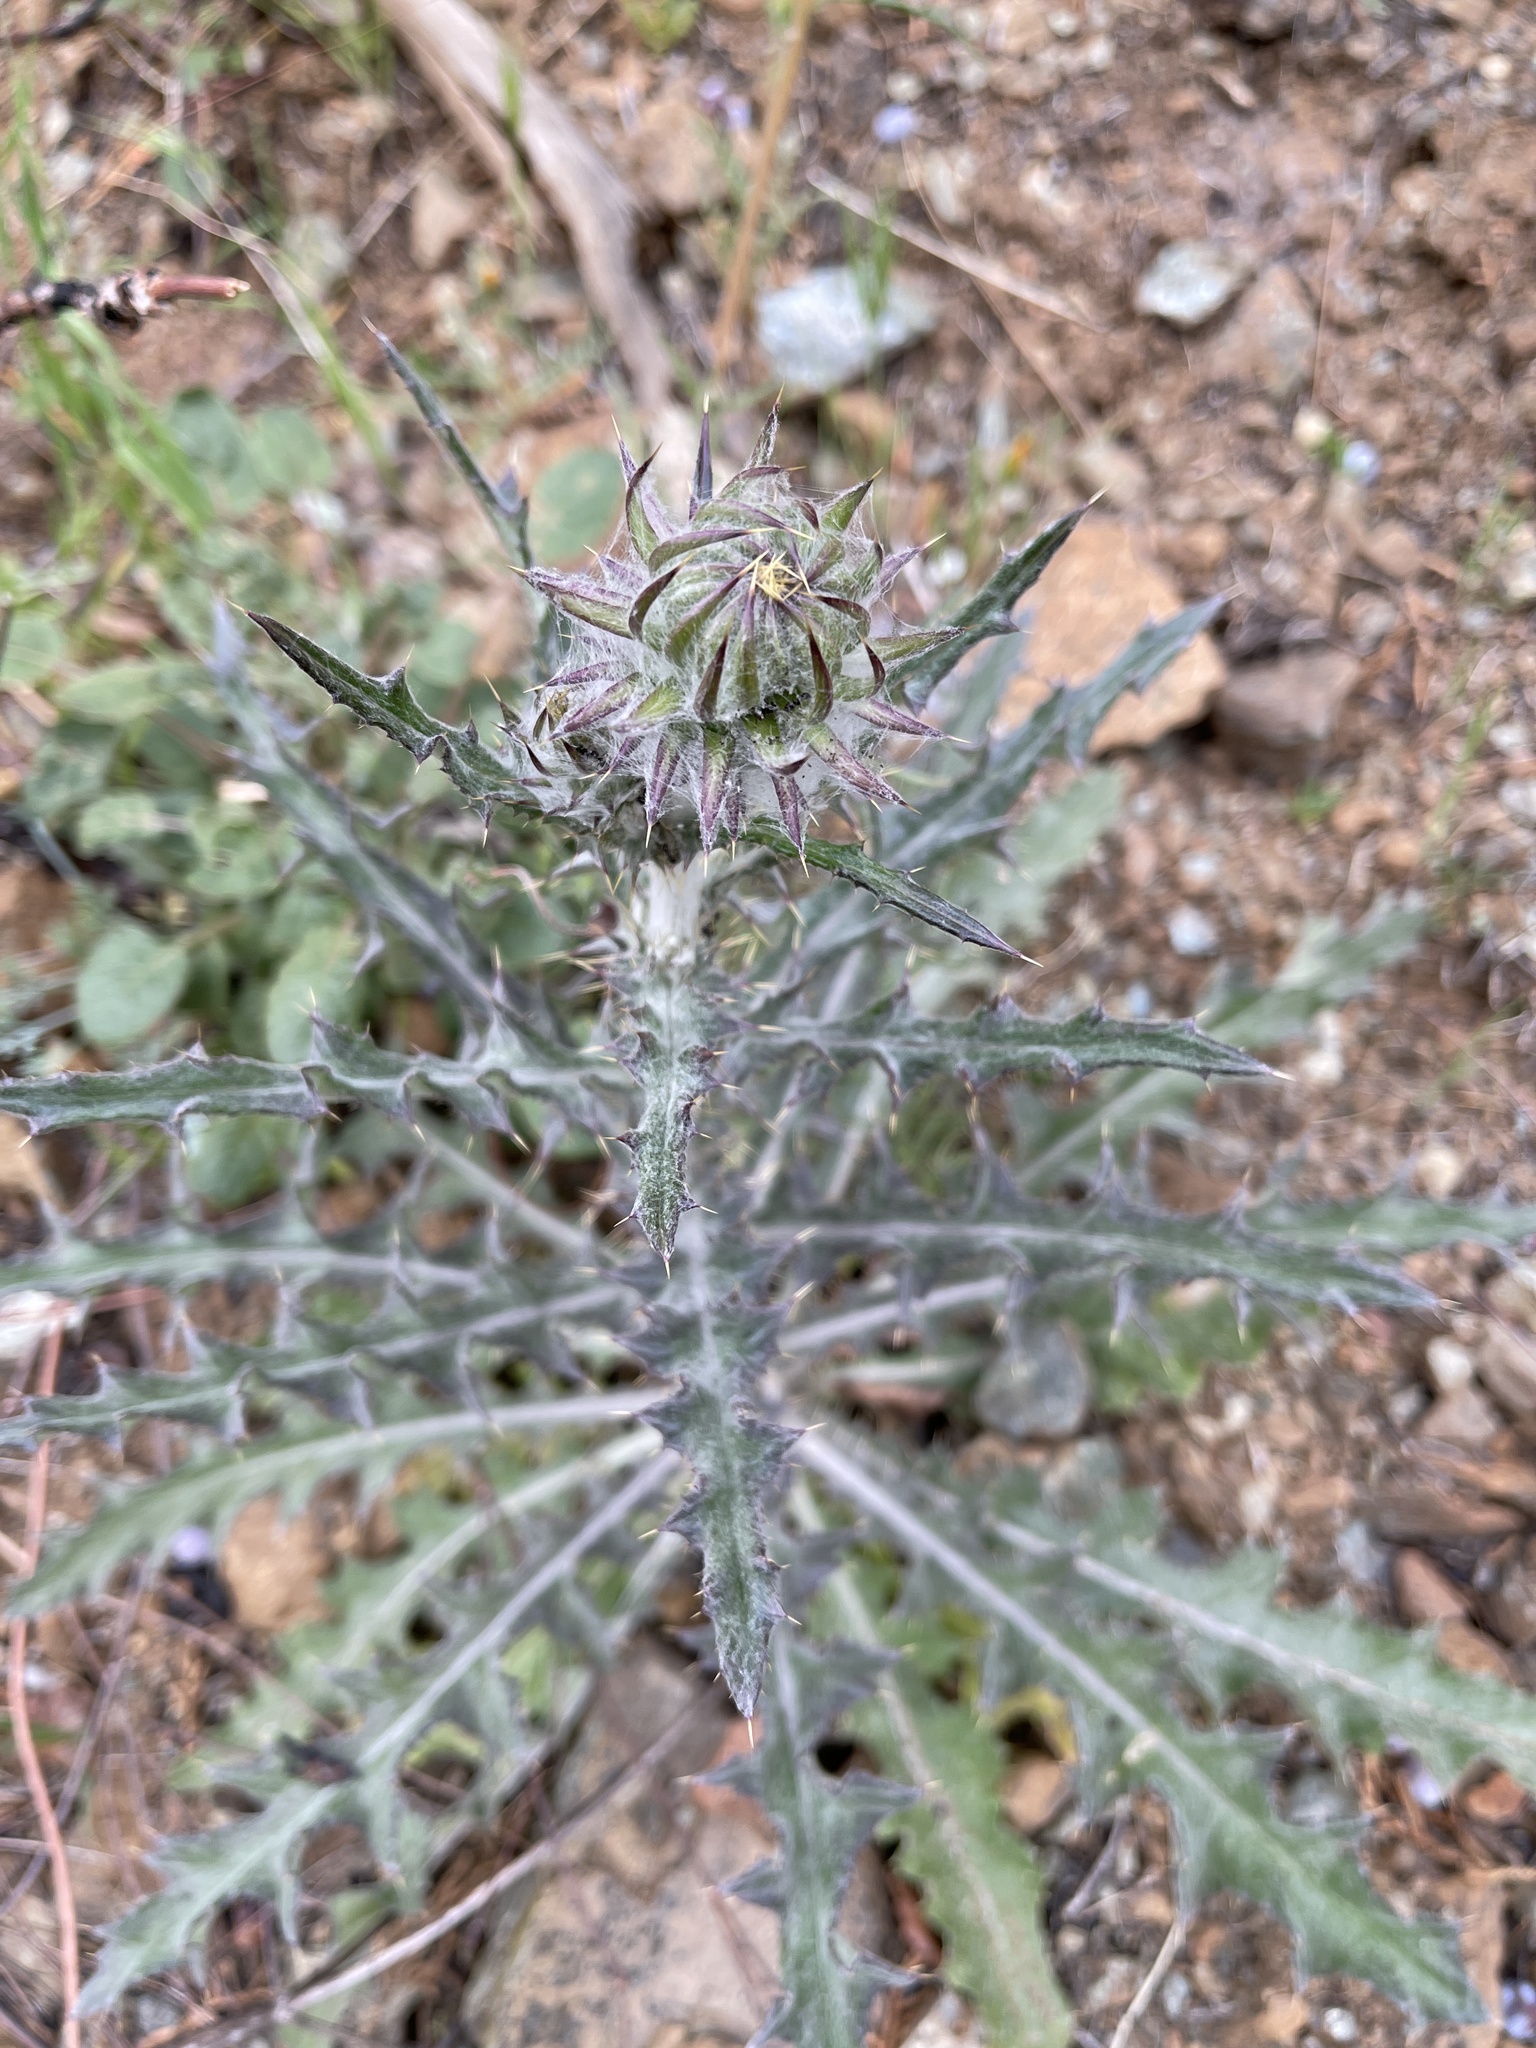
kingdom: Plantae
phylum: Tracheophyta
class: Magnoliopsida
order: Asterales
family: Asteraceae
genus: Cirsium
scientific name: Cirsium occidentale
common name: Western thistle
